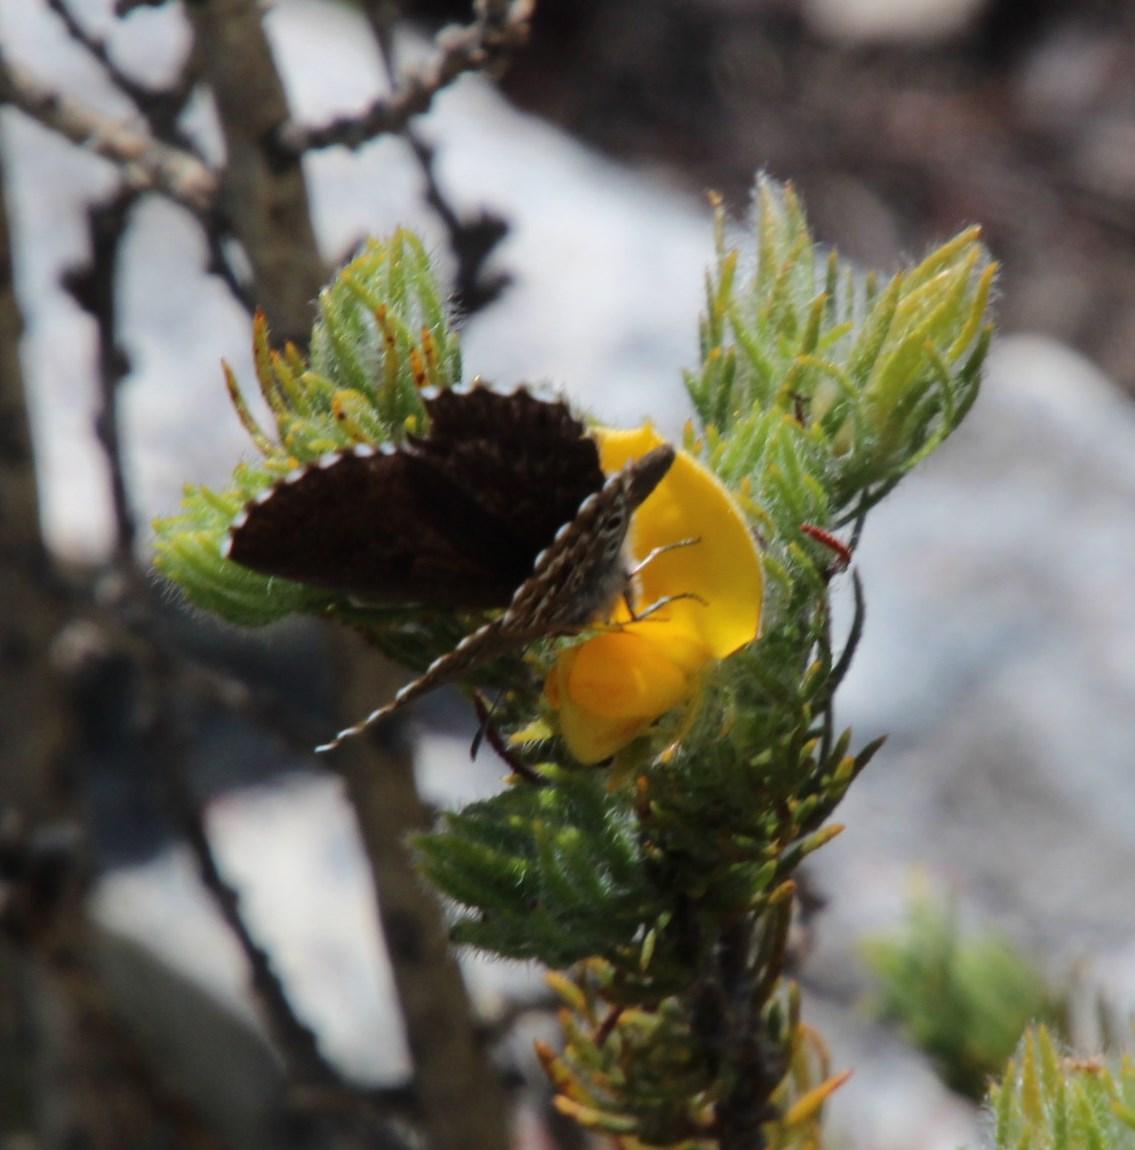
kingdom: Plantae
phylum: Tracheophyta
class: Magnoliopsida
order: Fabales
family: Fabaceae
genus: Aspalathus
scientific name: Aspalathus ciliaris
